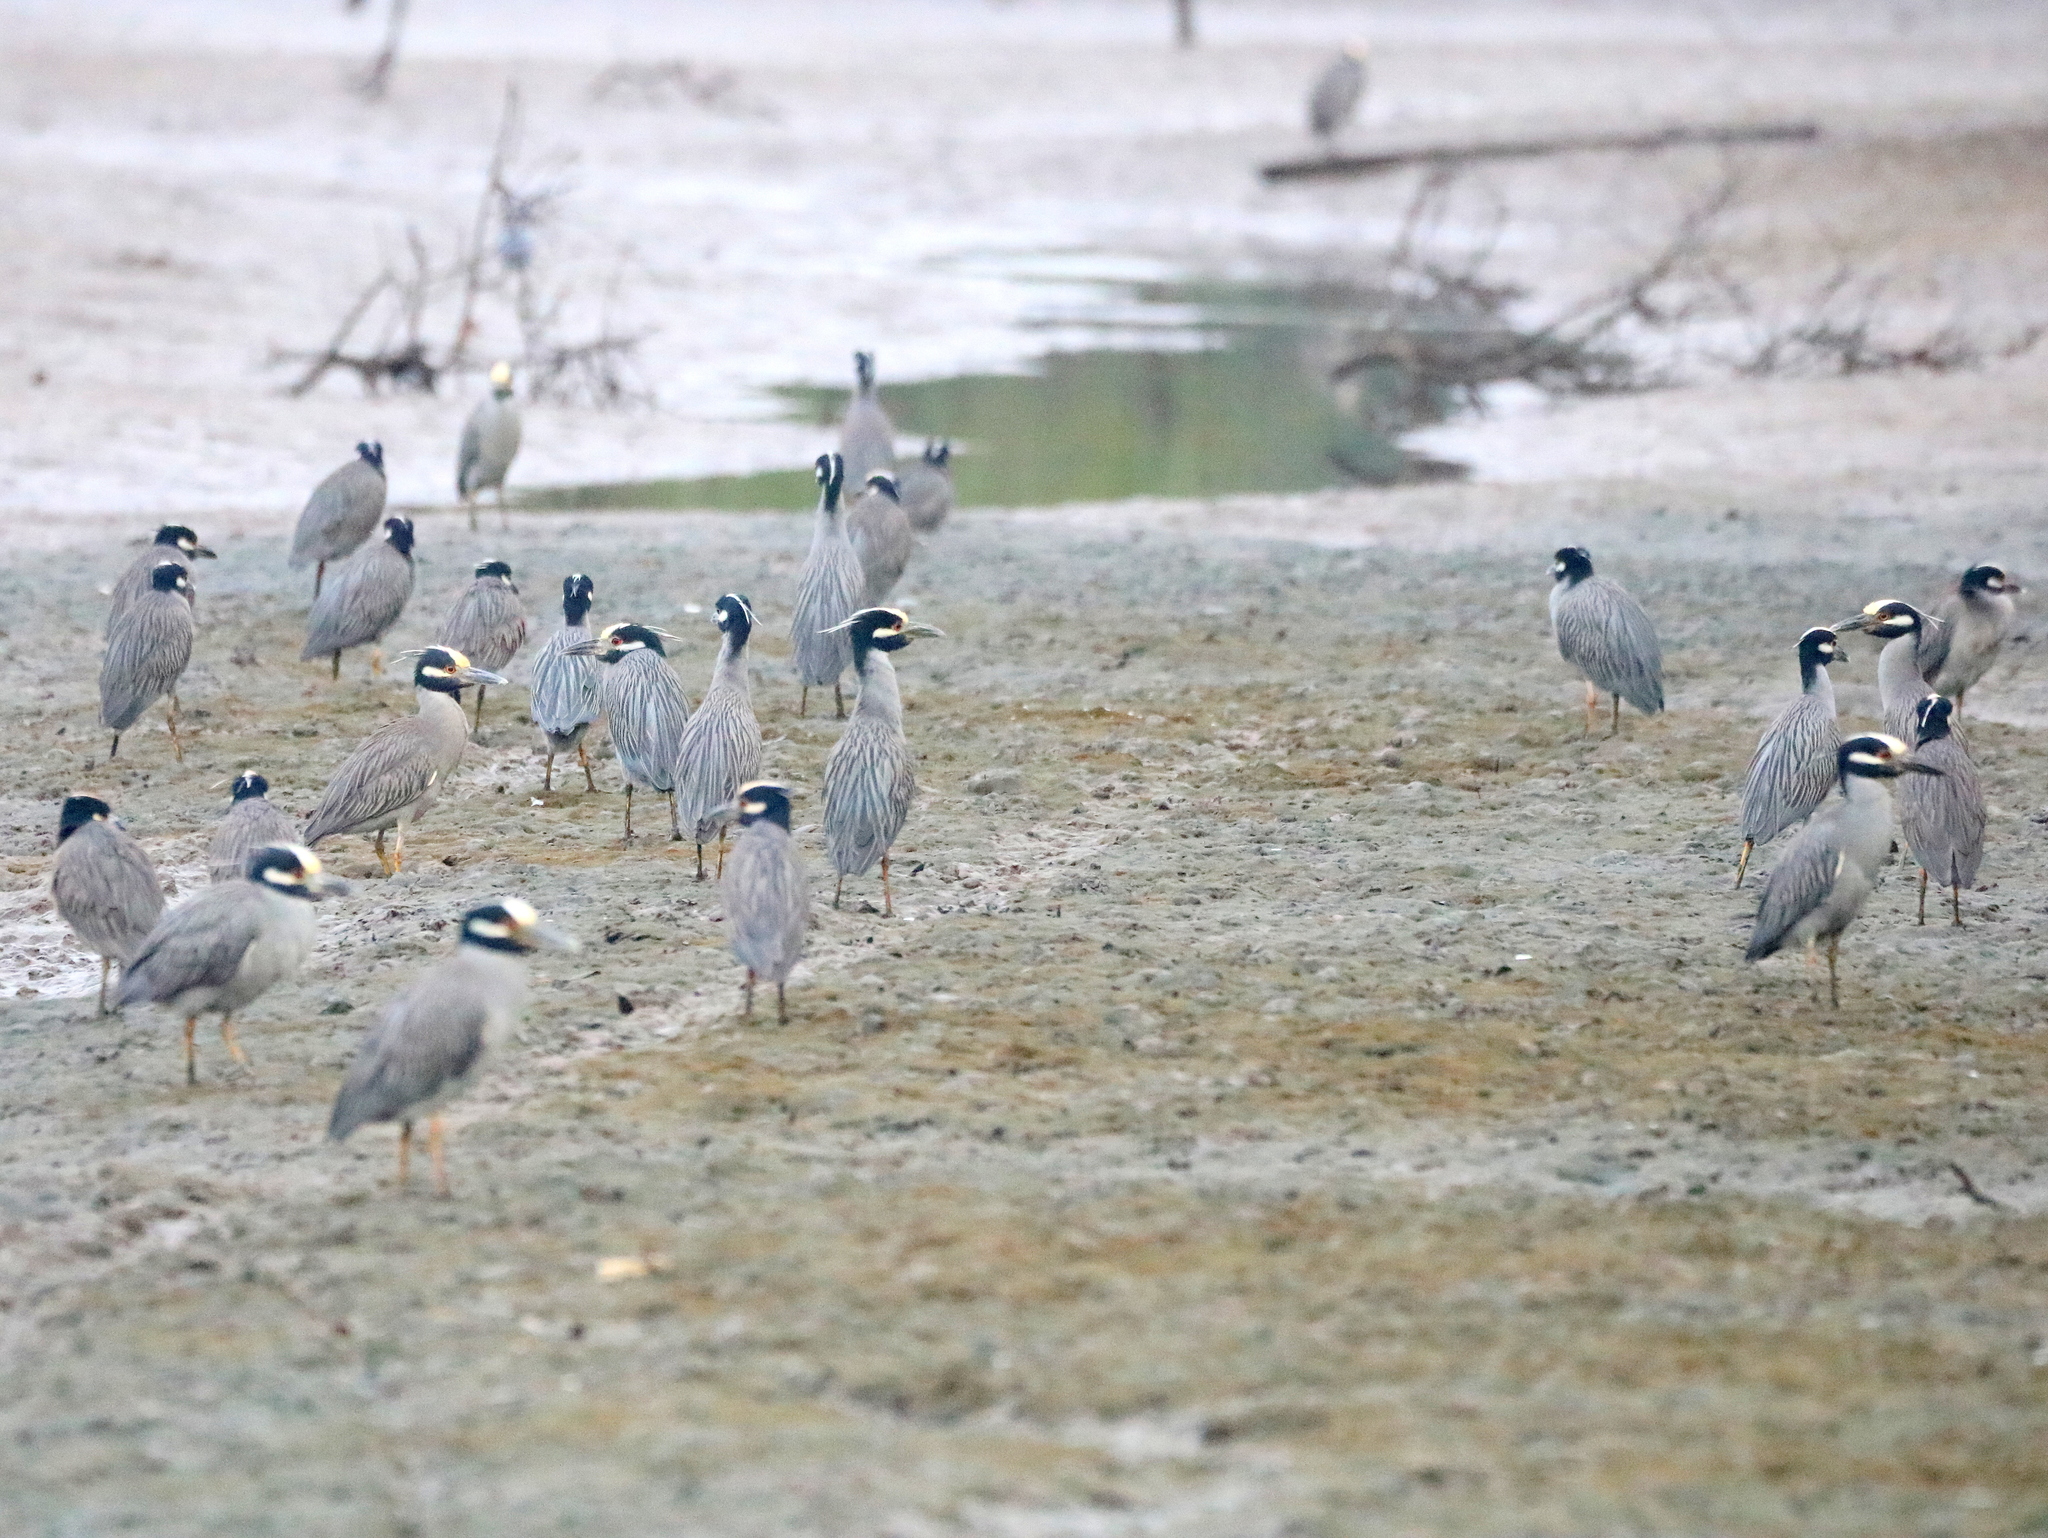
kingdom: Animalia
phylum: Chordata
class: Aves
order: Pelecaniformes
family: Ardeidae
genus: Nyctanassa
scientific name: Nyctanassa violacea
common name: Yellow-crowned night heron
